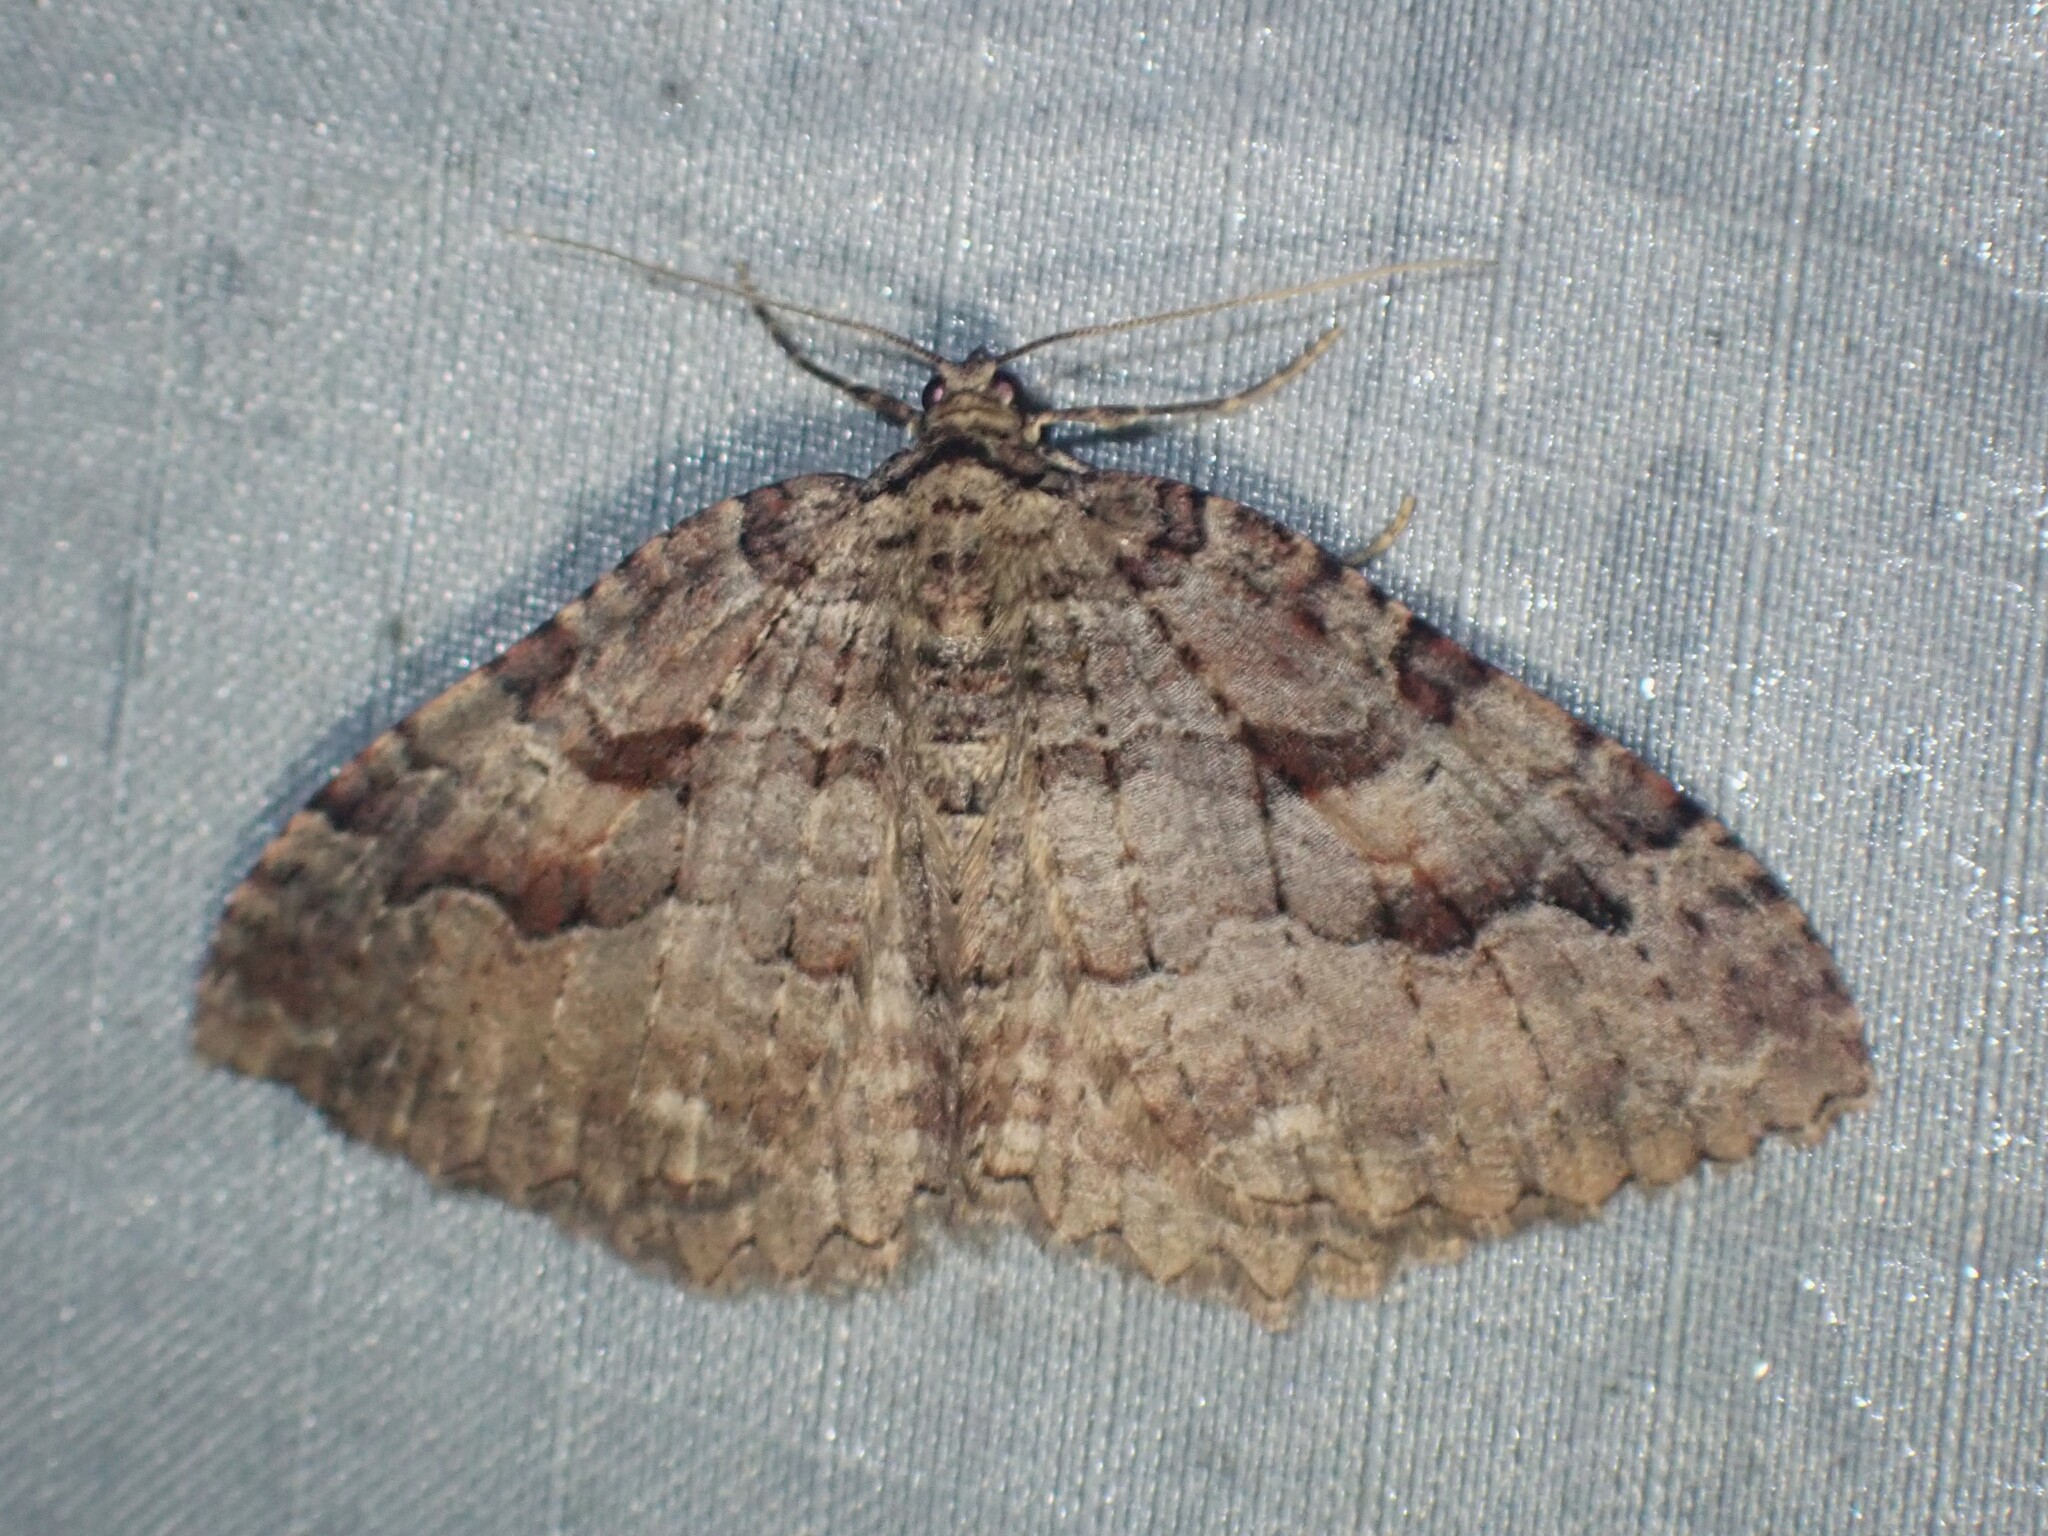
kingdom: Animalia
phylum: Arthropoda
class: Insecta
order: Lepidoptera
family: Geometridae
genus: Triphosa
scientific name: Triphosa haesitata
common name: Tissue moth
